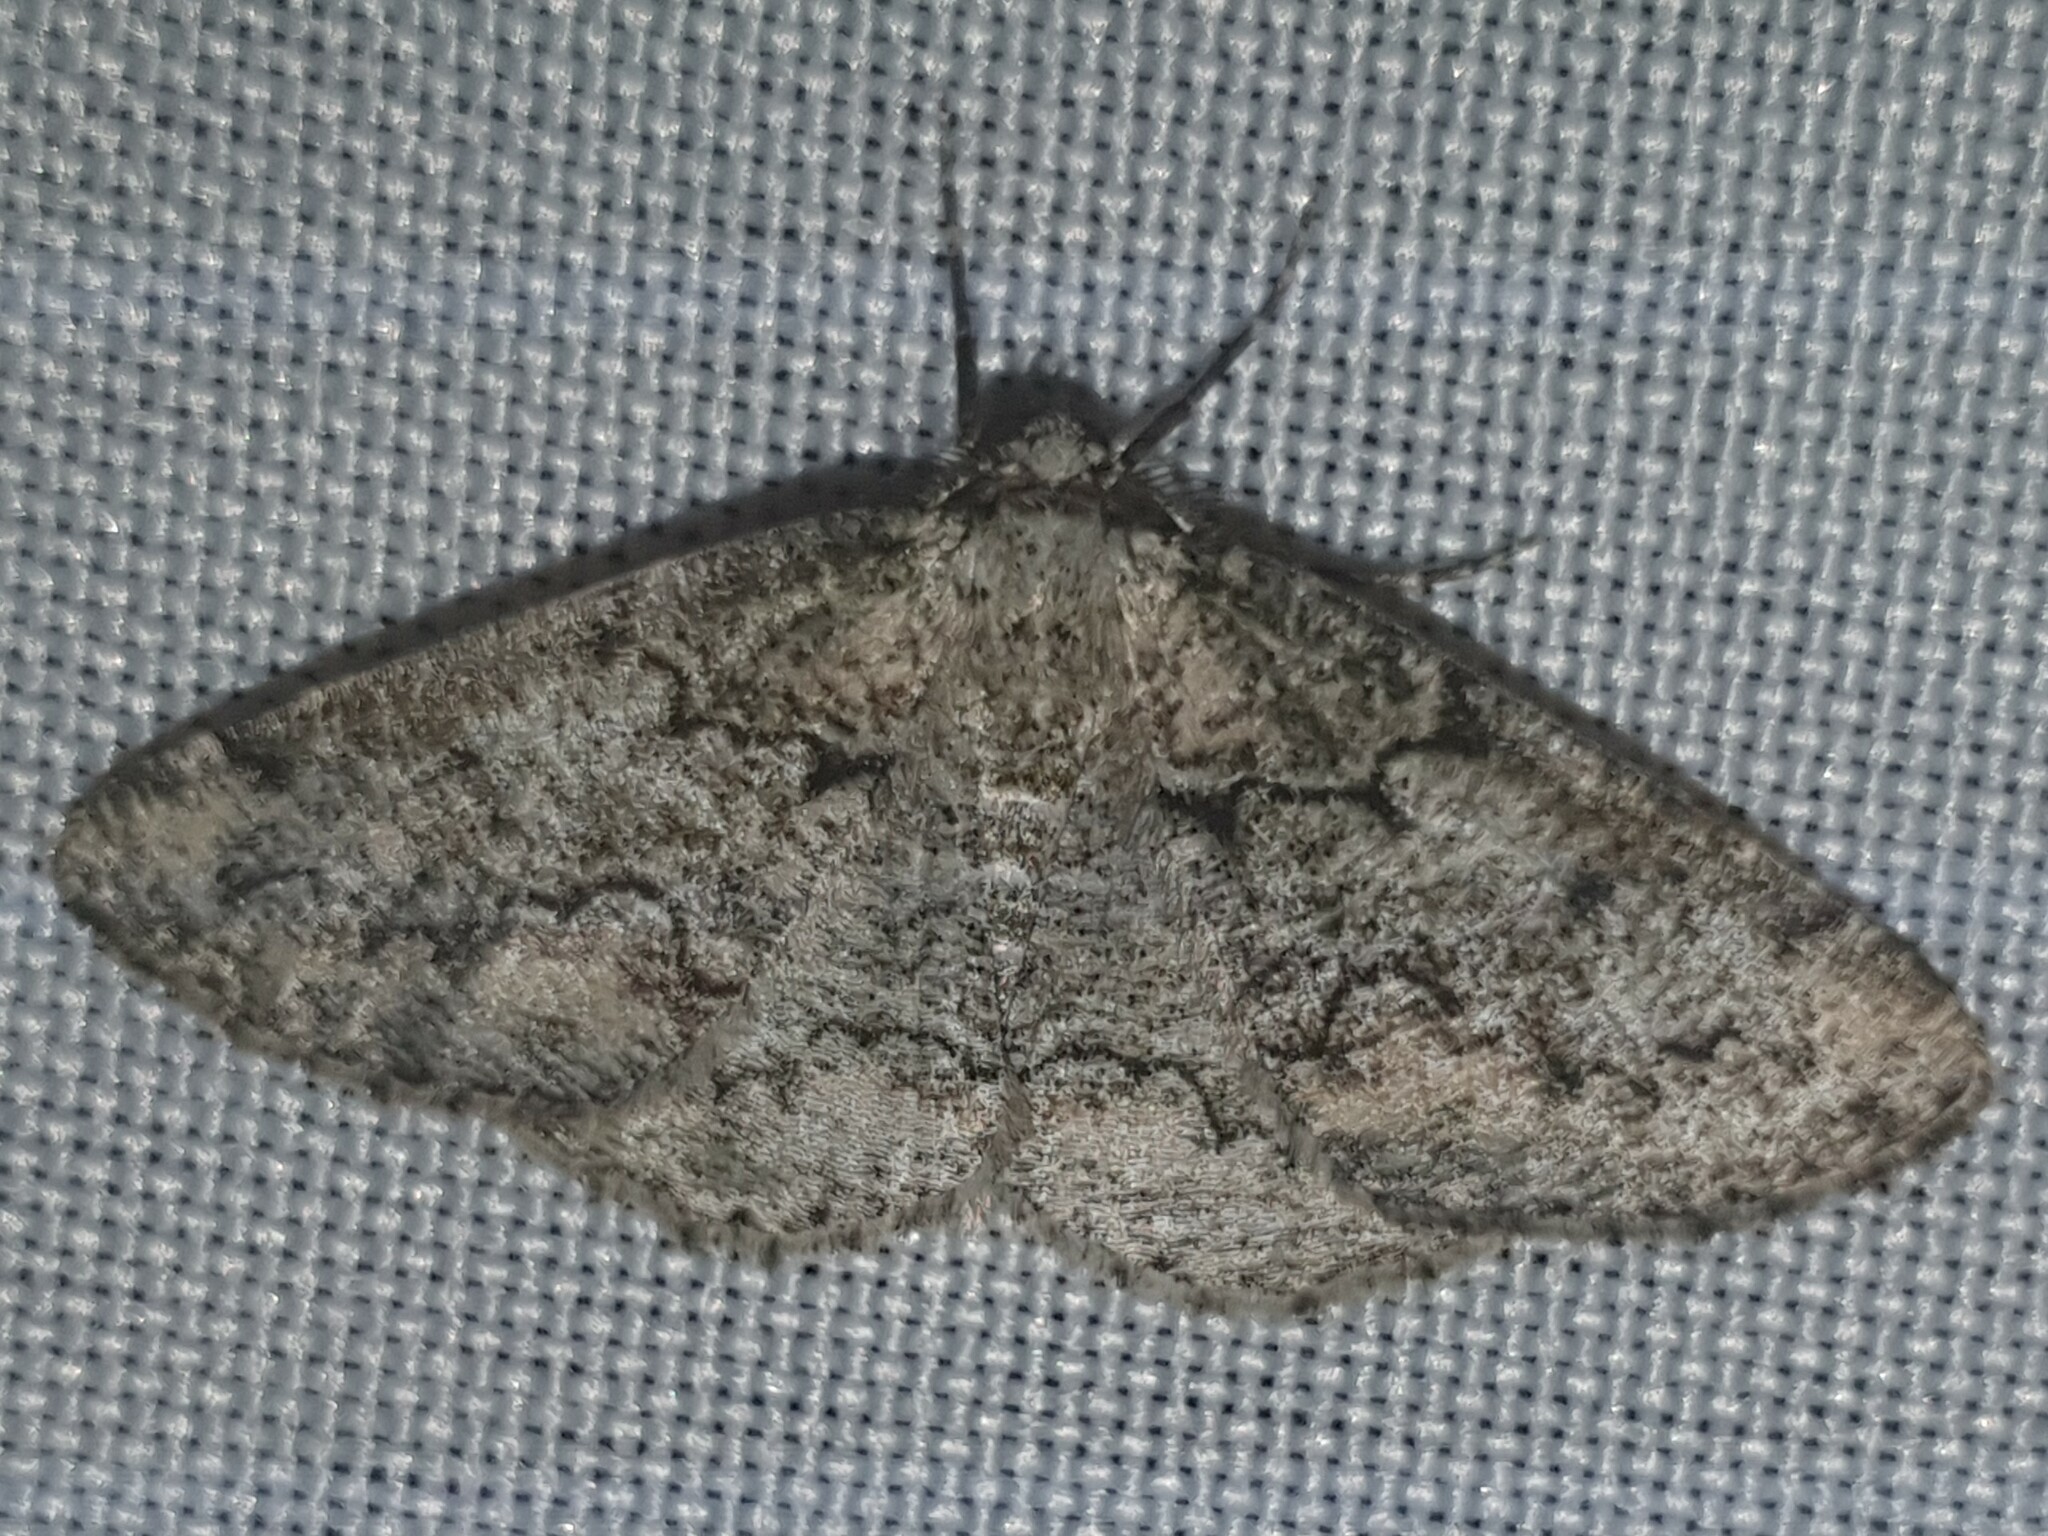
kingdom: Animalia
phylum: Arthropoda
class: Insecta
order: Lepidoptera
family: Geometridae
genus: Cleorodes
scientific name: Cleorodes lichenaria
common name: Brussels lace
